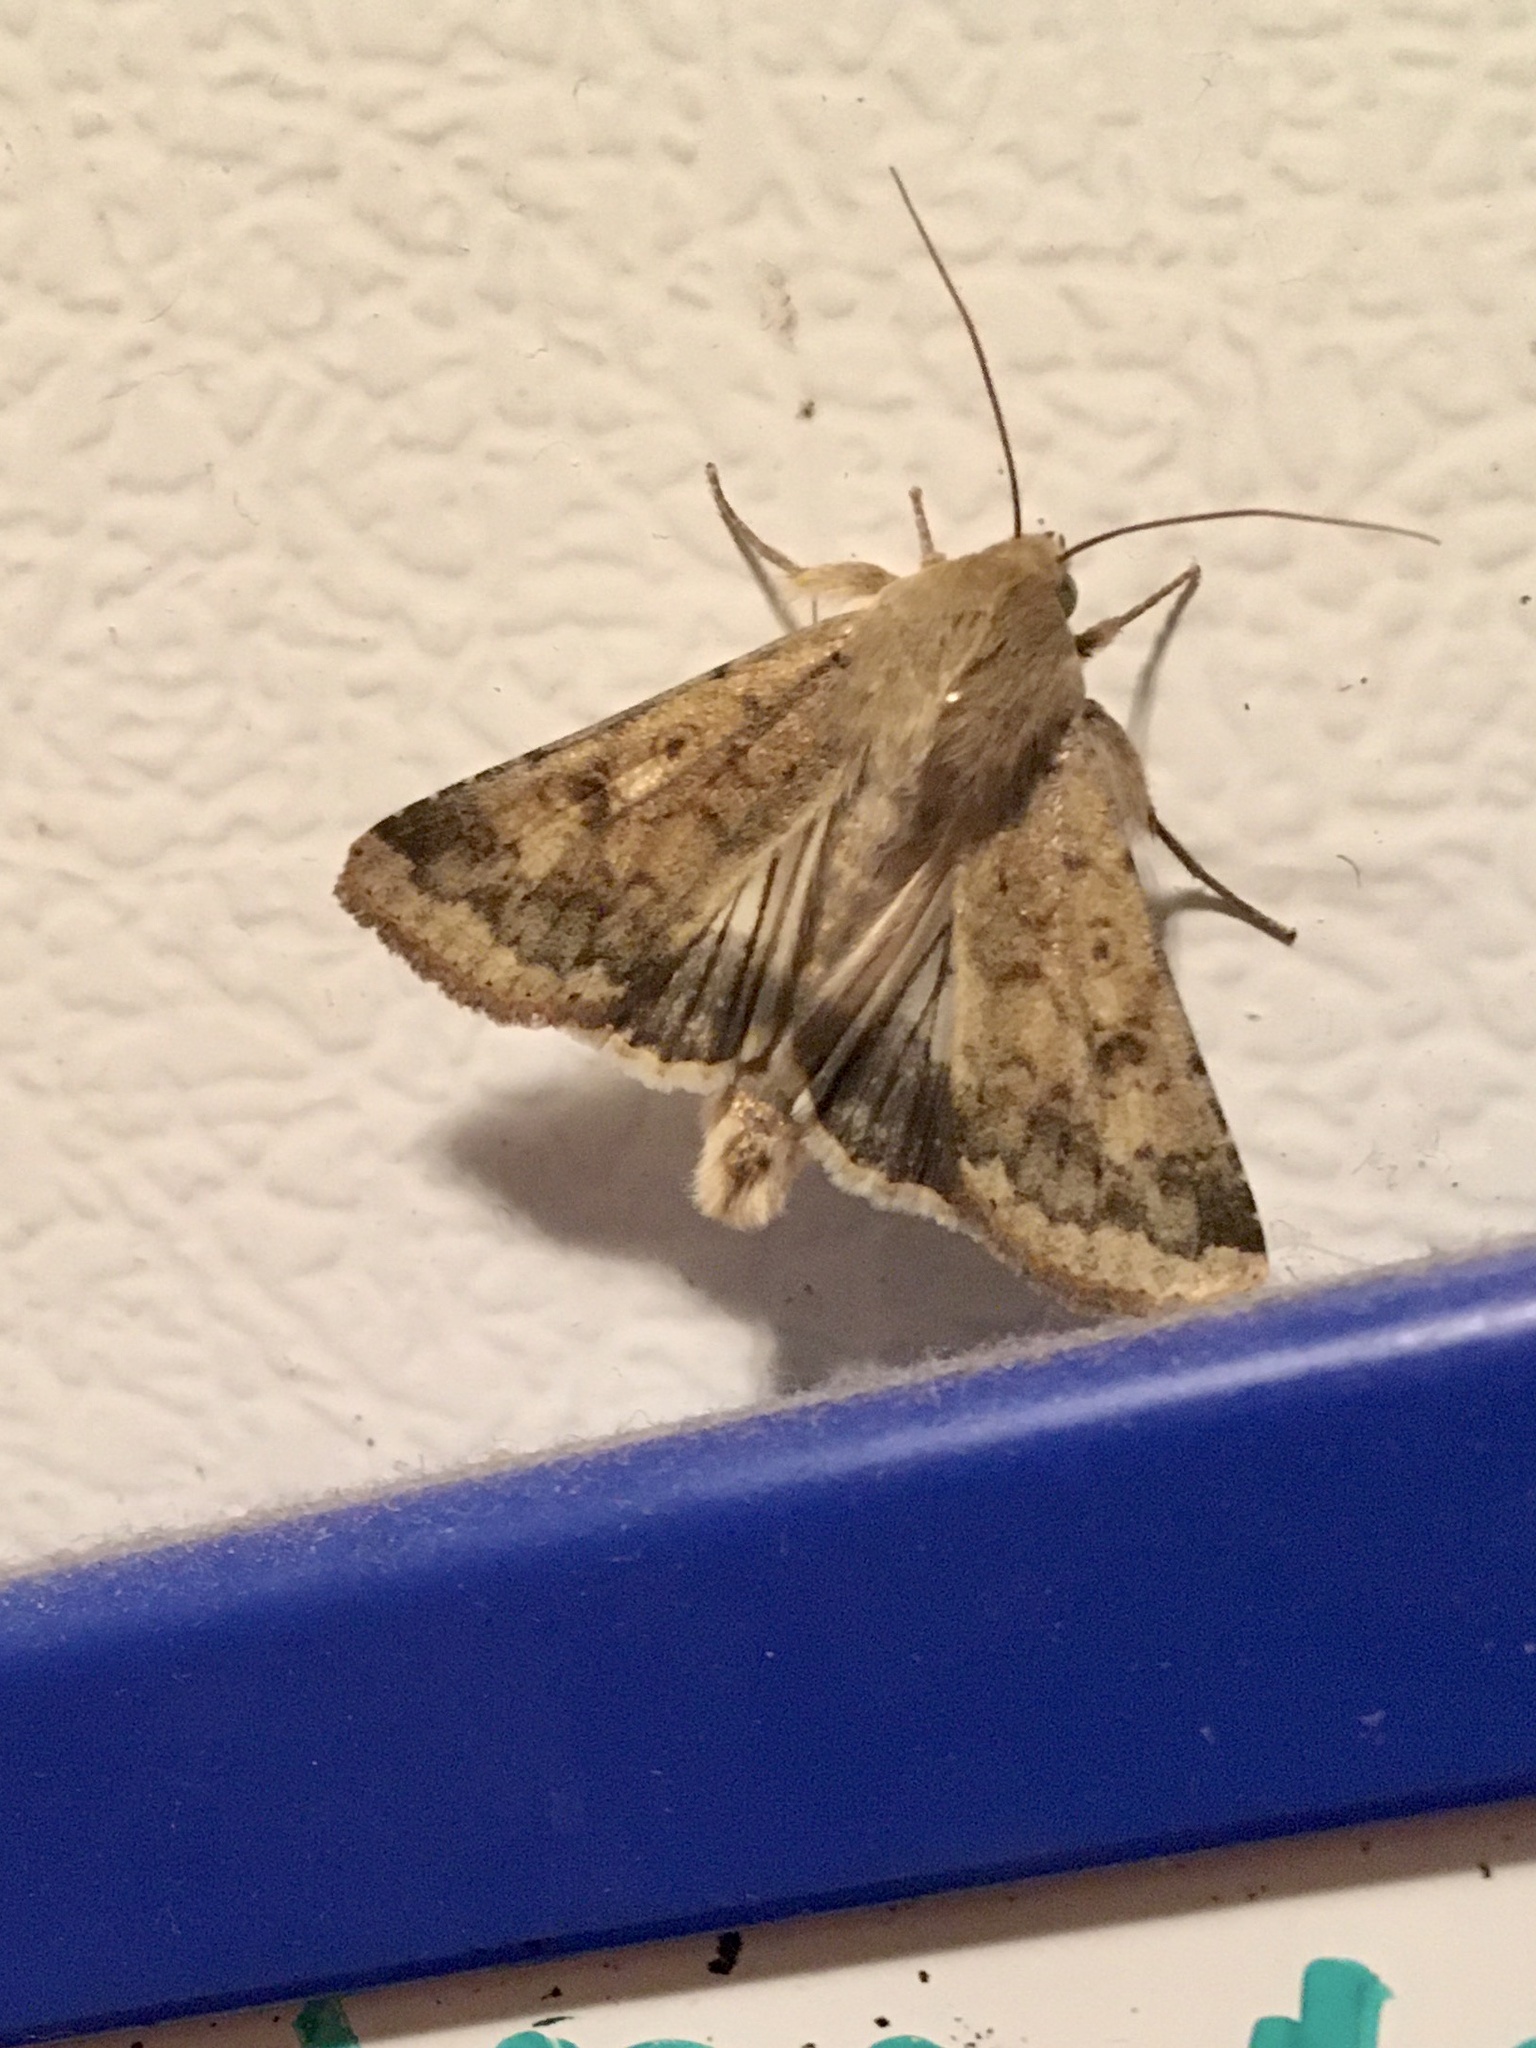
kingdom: Animalia
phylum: Arthropoda
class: Insecta
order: Lepidoptera
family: Noctuidae
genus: Helicoverpa
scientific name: Helicoverpa zea
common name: Bollworm
